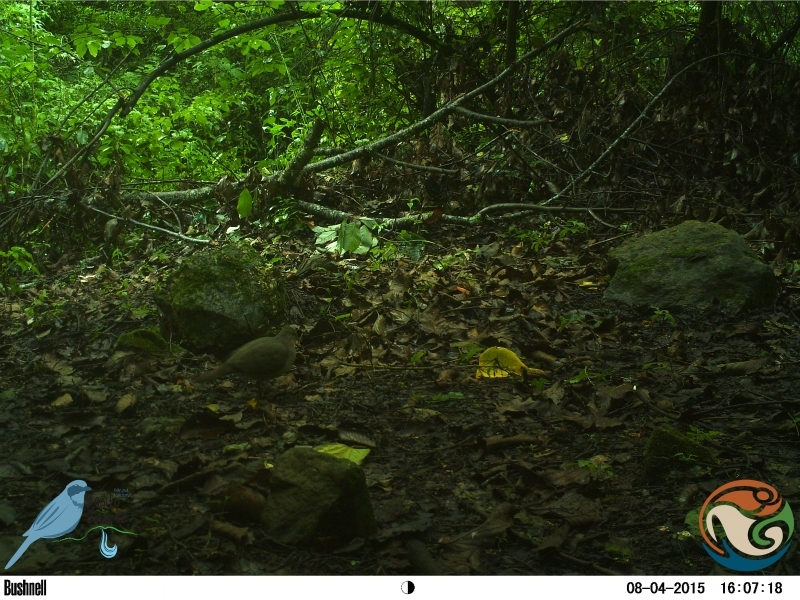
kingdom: Animalia
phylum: Chordata
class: Aves
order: Columbiformes
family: Columbidae
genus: Leptotila
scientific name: Leptotila verreauxi
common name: White-tipped dove
